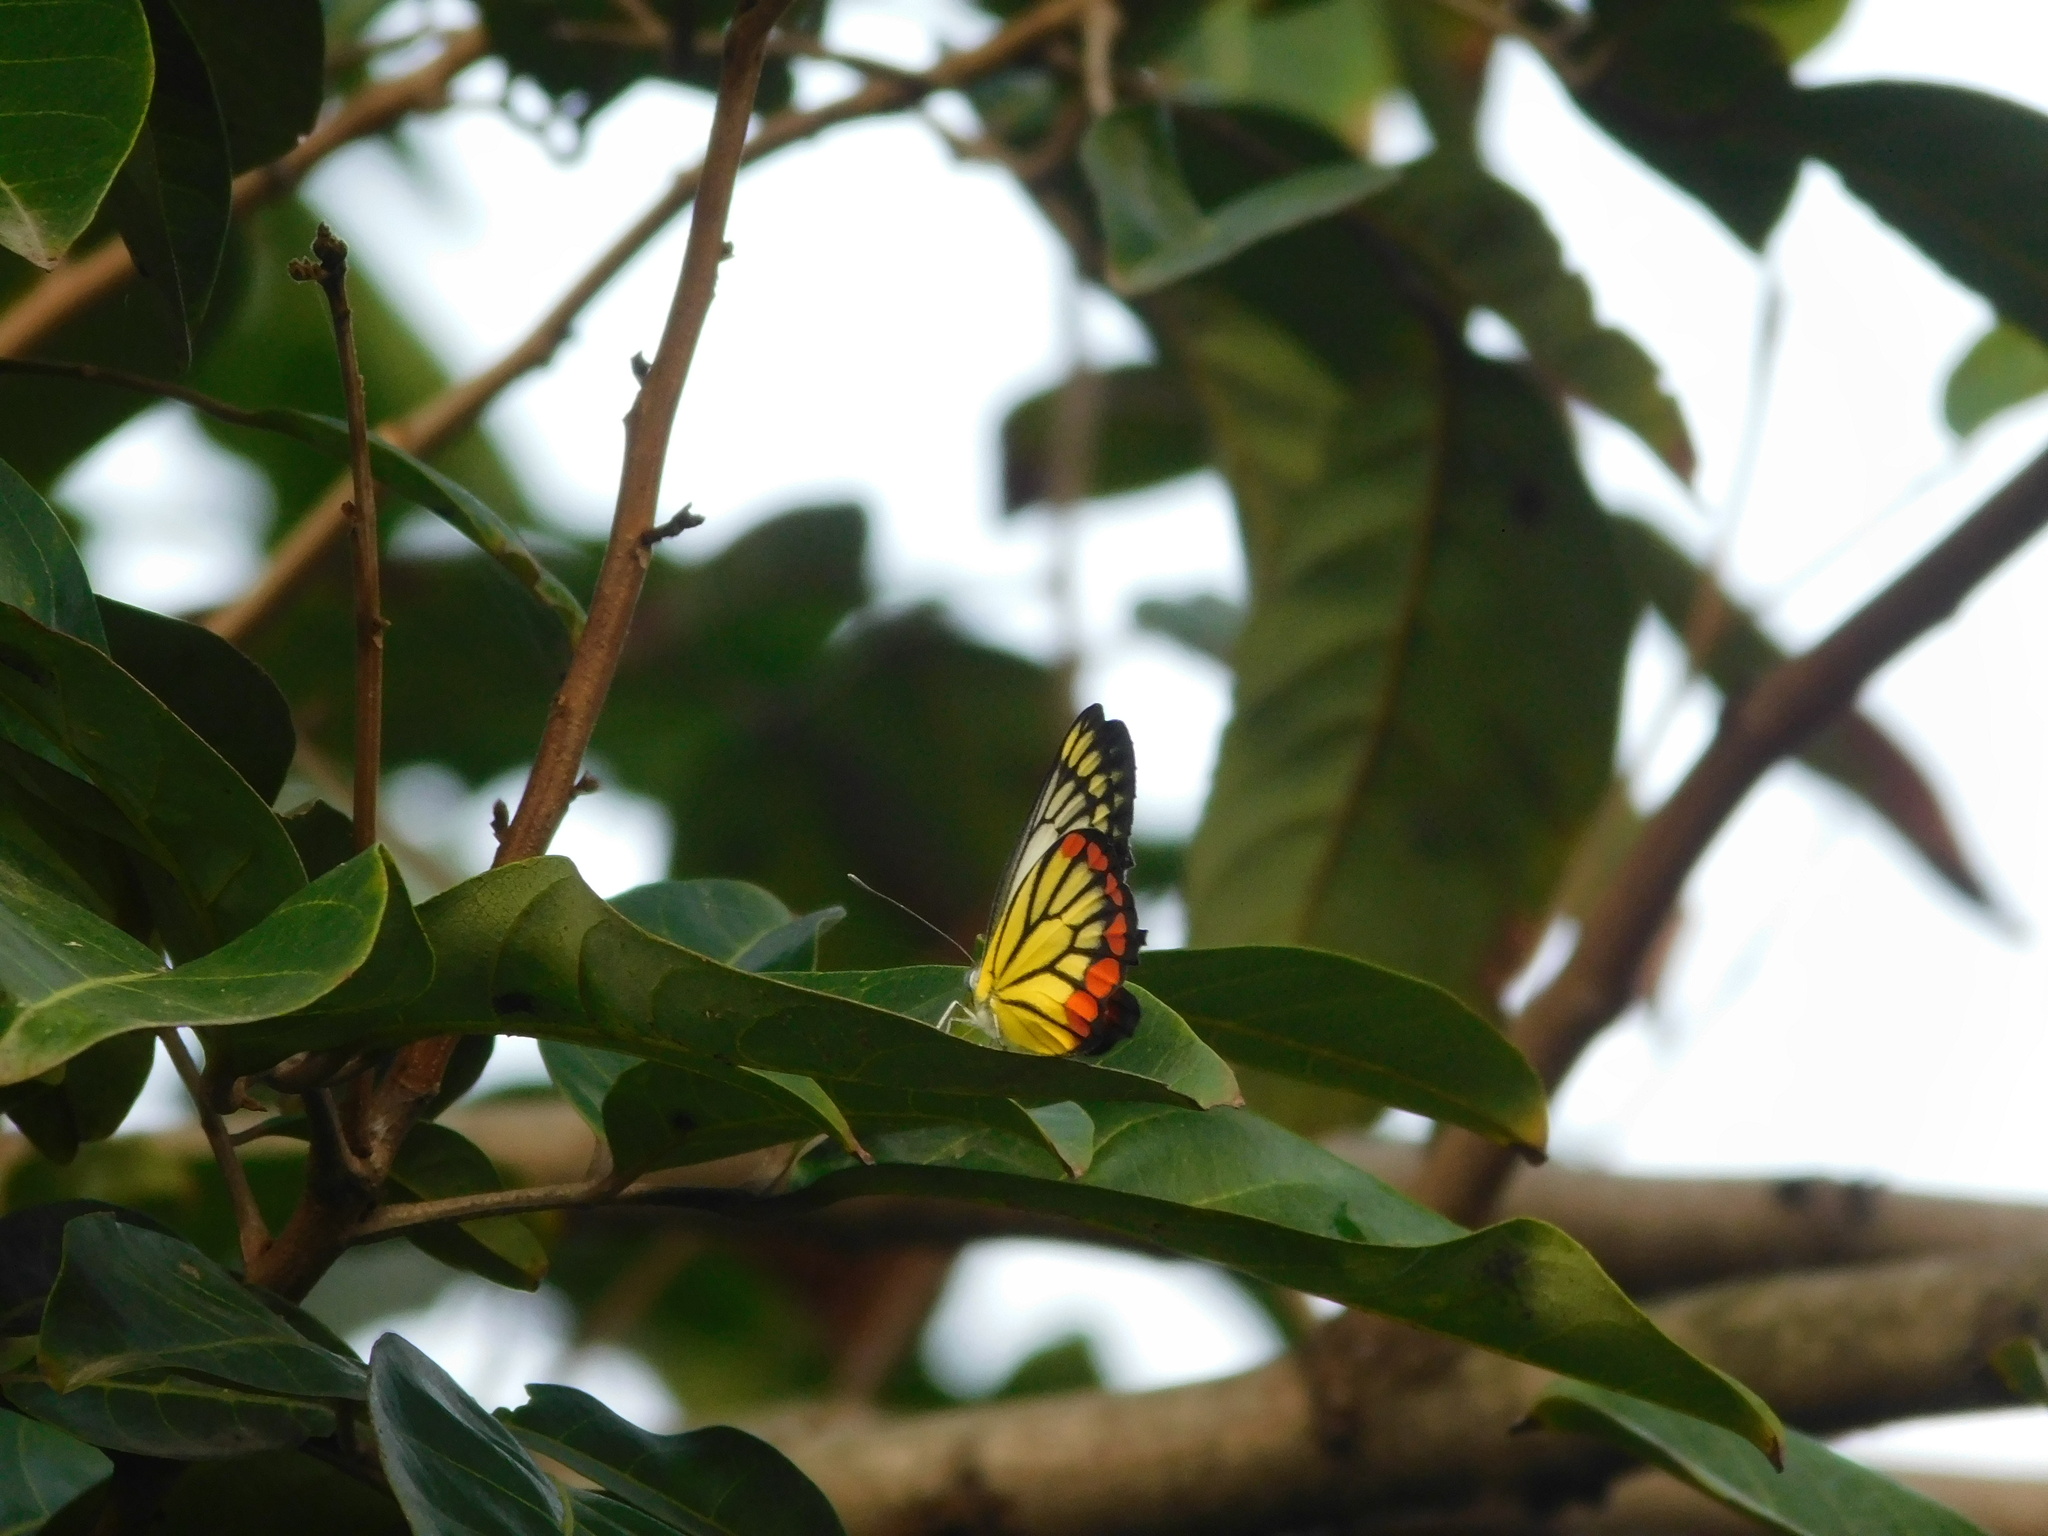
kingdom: Animalia
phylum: Arthropoda
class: Insecta
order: Lepidoptera
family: Pieridae
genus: Delias
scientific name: Delias hyparete
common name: Painted jezebel
